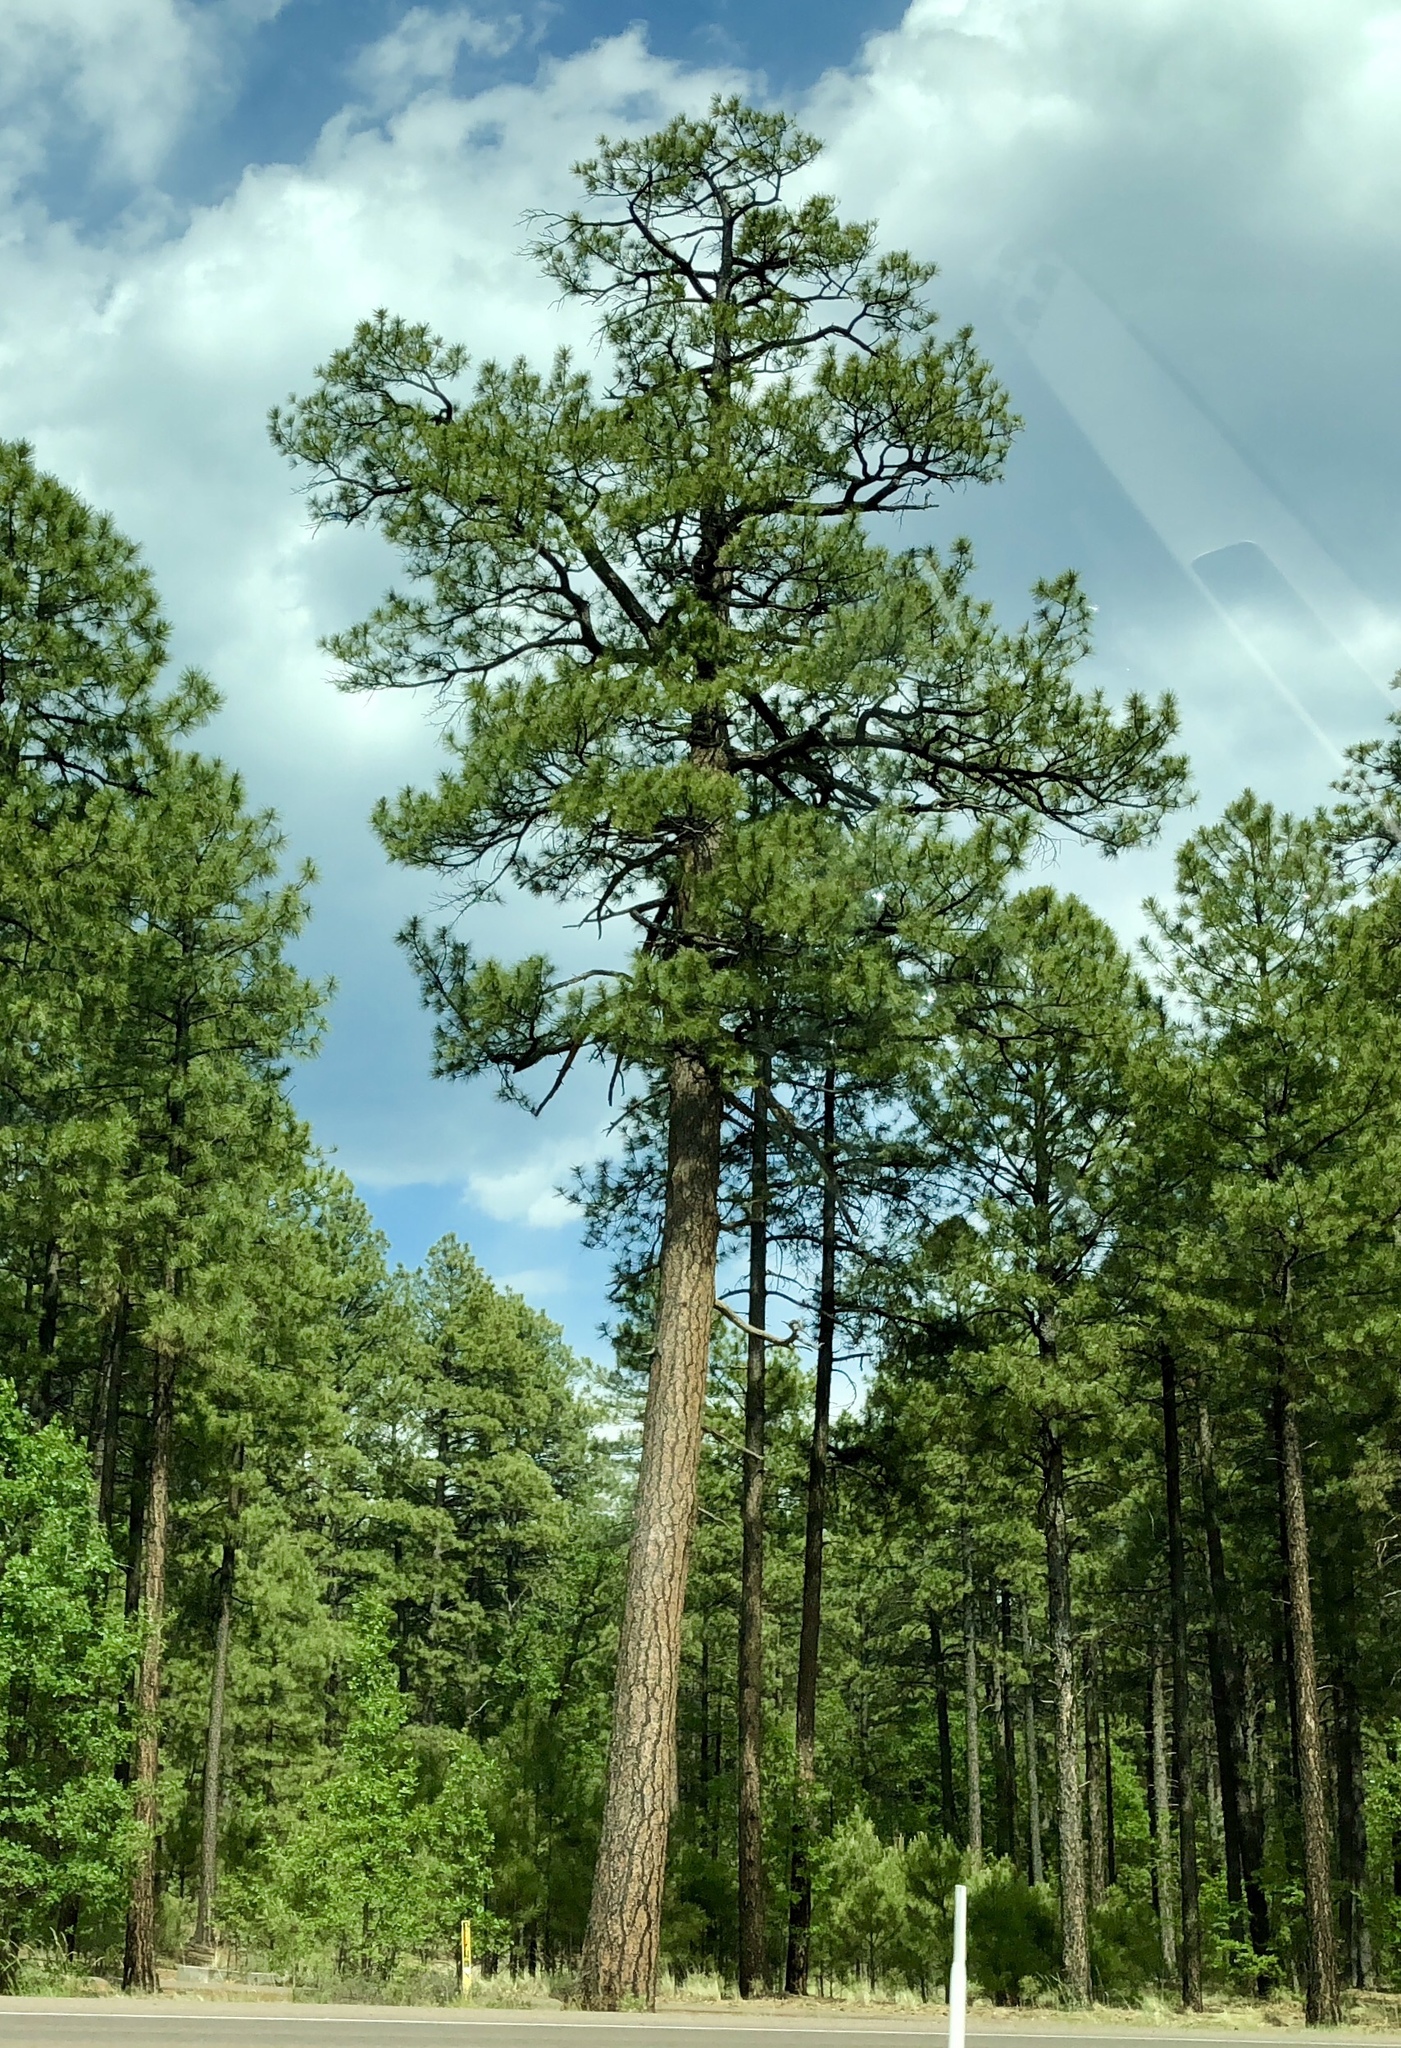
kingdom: Plantae
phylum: Tracheophyta
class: Pinopsida
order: Pinales
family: Pinaceae
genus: Pinus
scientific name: Pinus ponderosa
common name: Western yellow-pine
